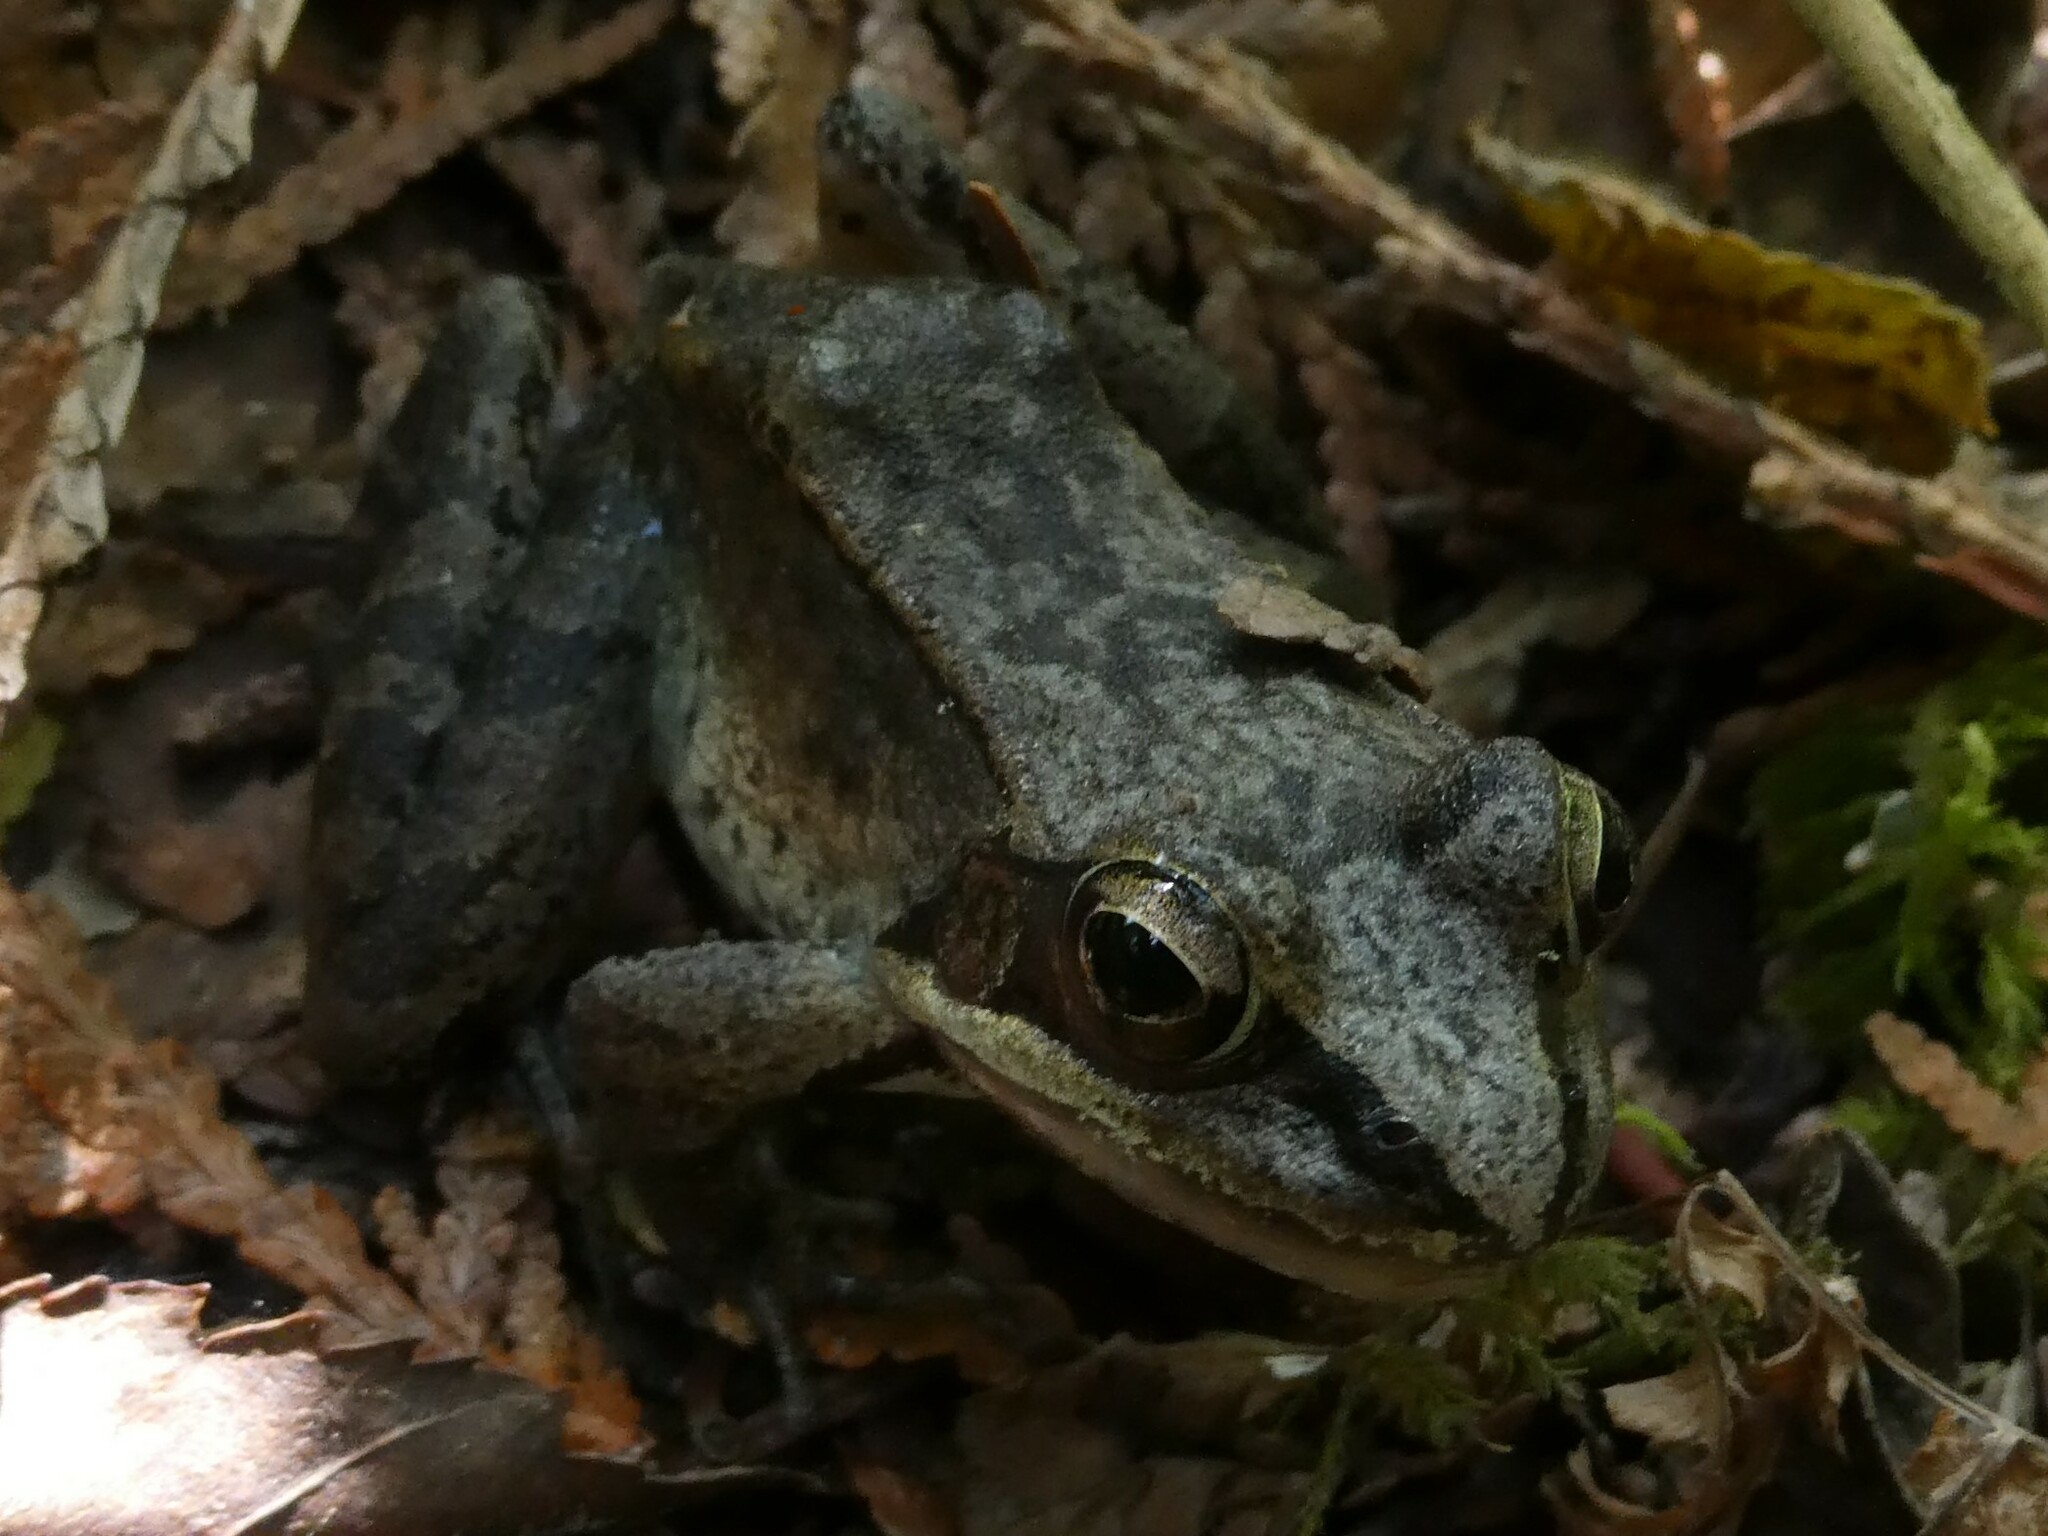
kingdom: Animalia
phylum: Chordata
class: Amphibia
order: Anura
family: Ranidae
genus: Lithobates
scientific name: Lithobates sylvaticus
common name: Wood frog
